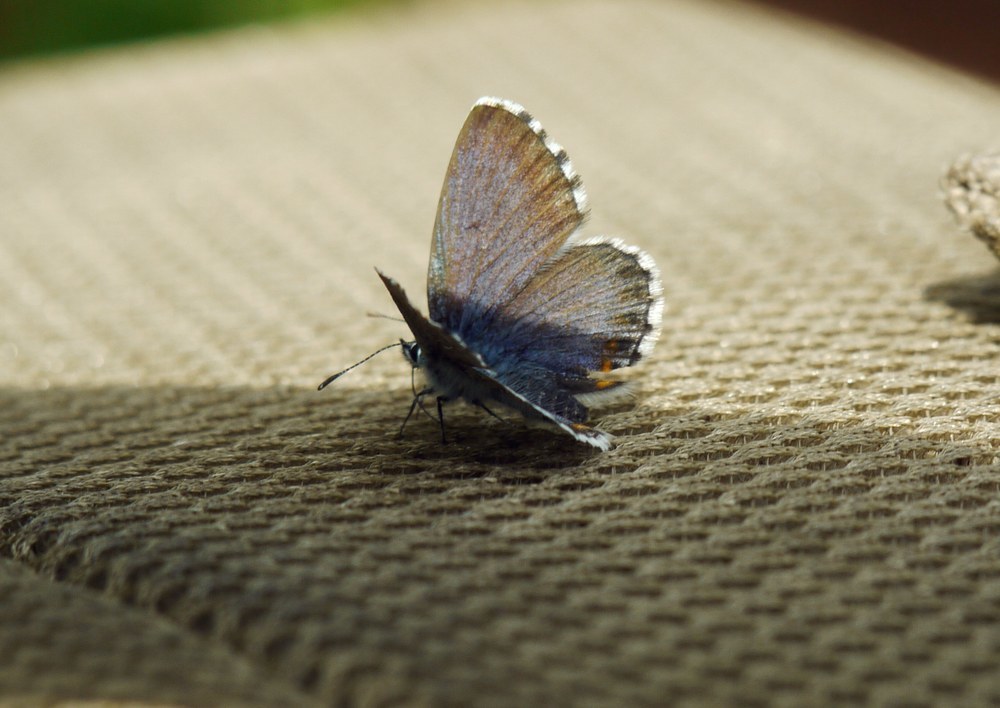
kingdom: Animalia
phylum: Arthropoda
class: Insecta
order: Lepidoptera
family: Lycaenidae
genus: Pseudophilotes
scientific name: Pseudophilotes bavius
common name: Bavius blue
